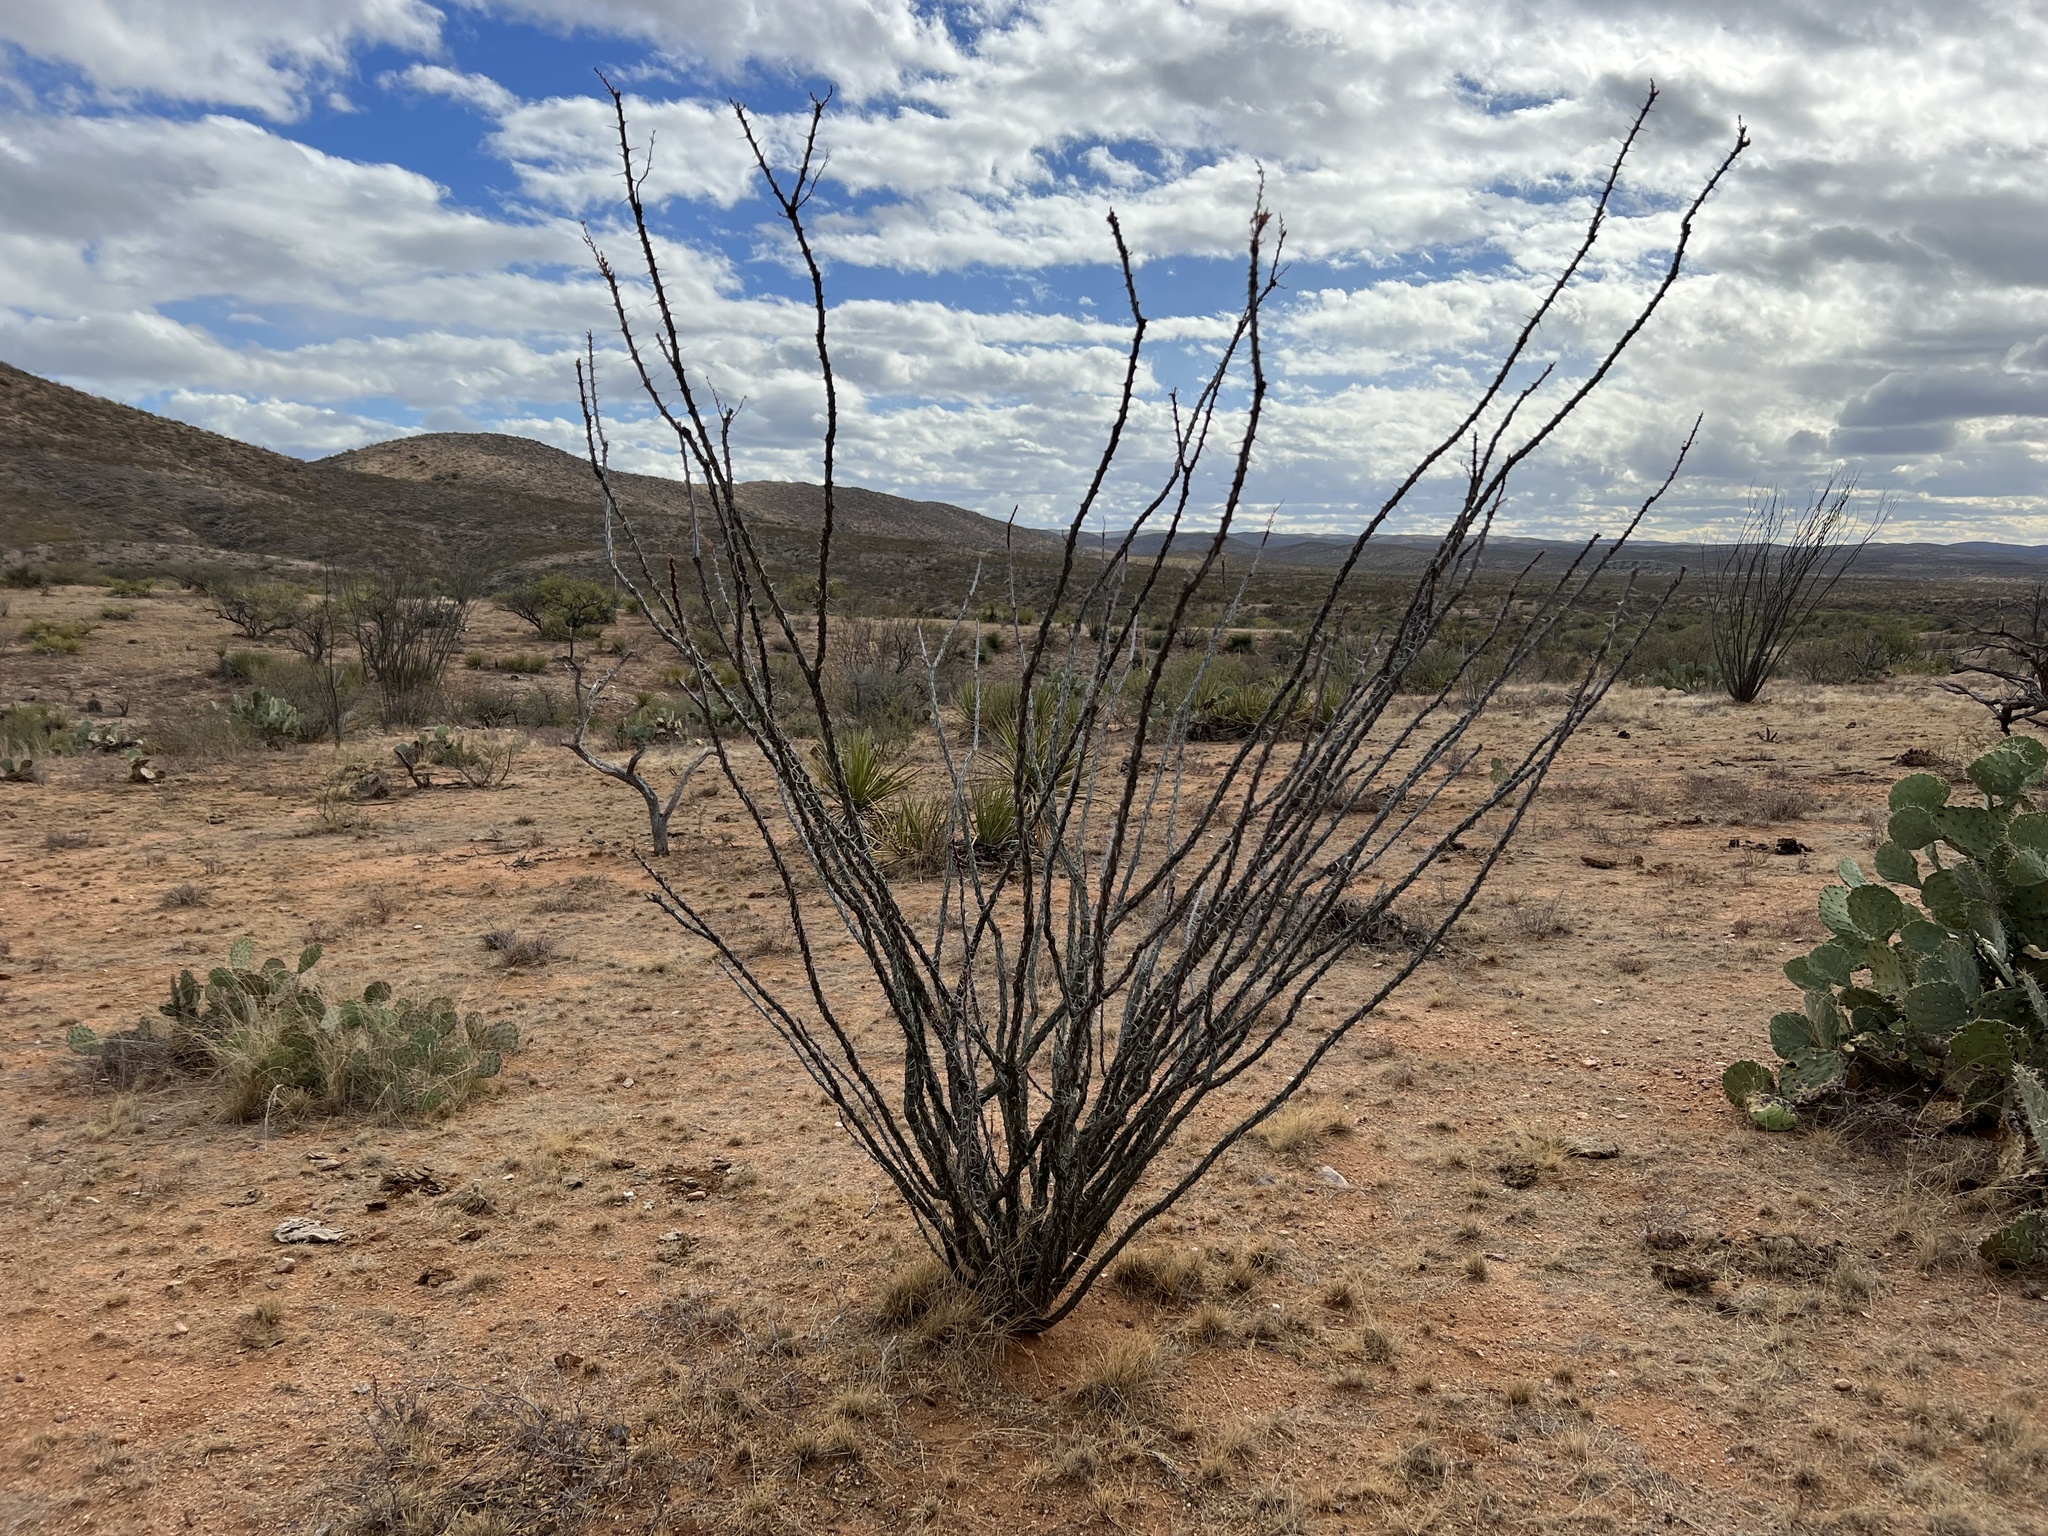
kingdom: Plantae
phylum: Tracheophyta
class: Magnoliopsida
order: Ericales
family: Fouquieriaceae
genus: Fouquieria
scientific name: Fouquieria splendens
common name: Vine-cactus
